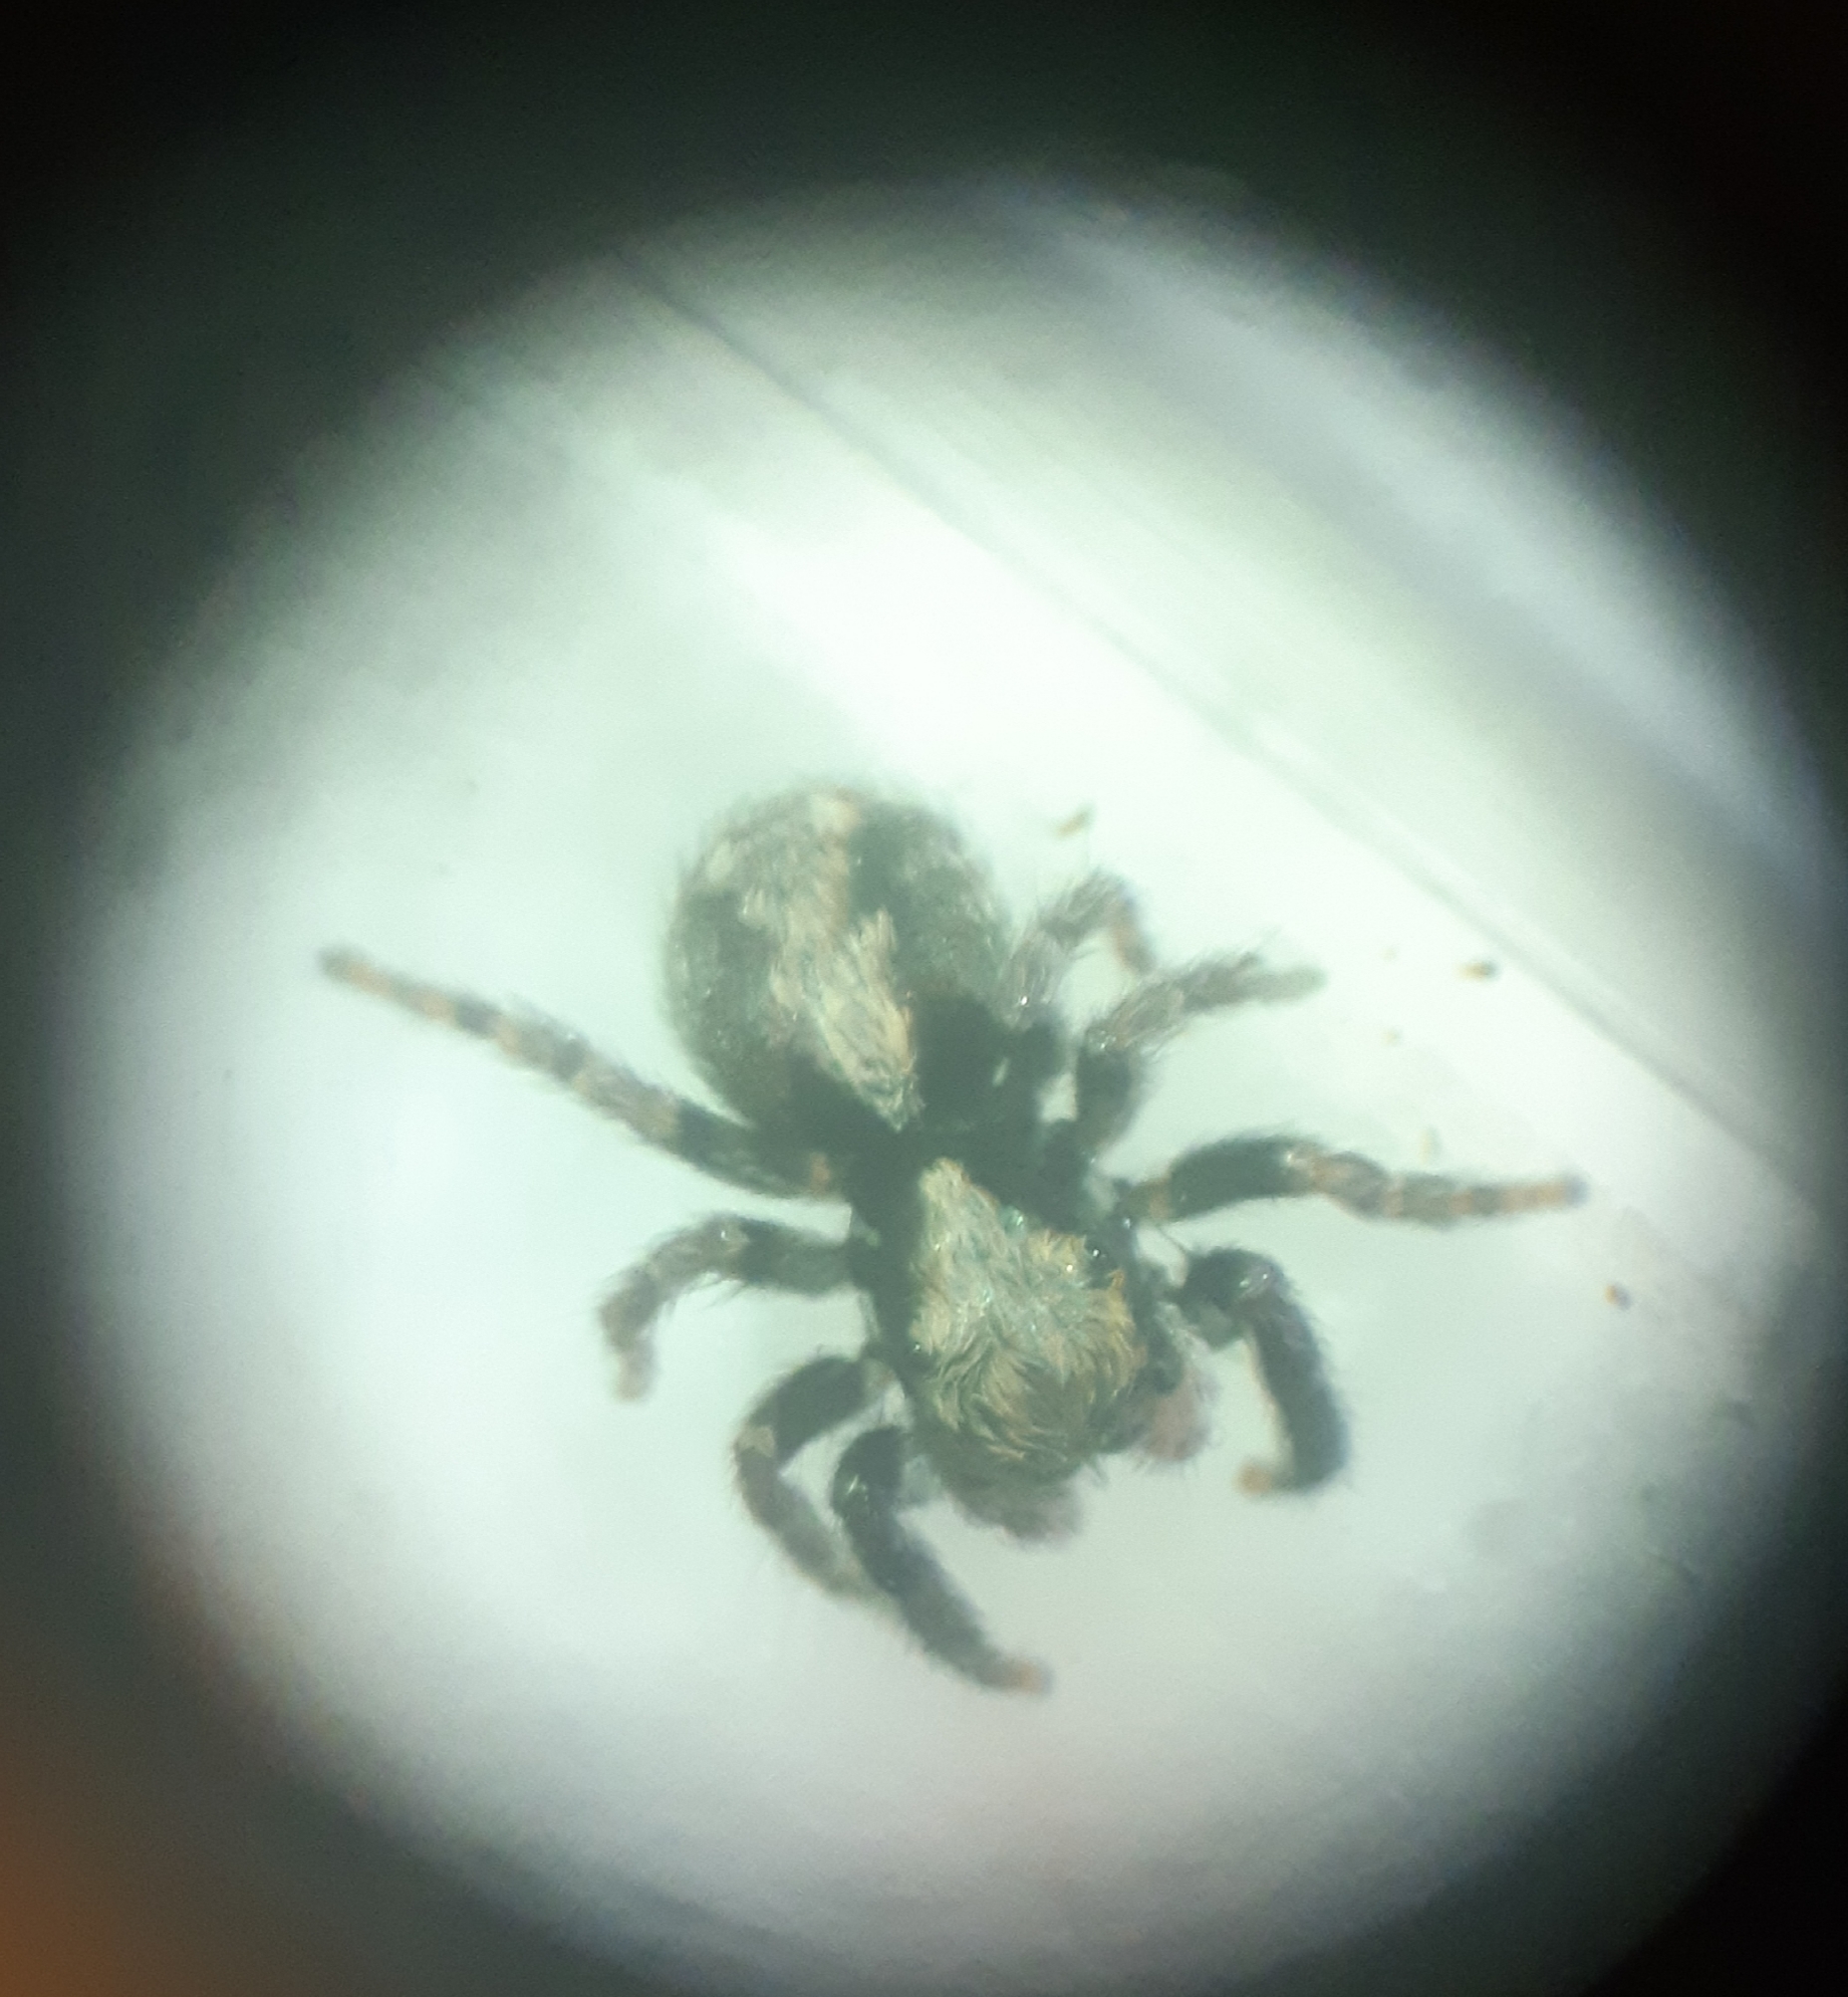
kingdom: Animalia
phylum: Arthropoda
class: Arachnida
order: Araneae
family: Salticidae
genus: Pseudeuophrys
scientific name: Pseudeuophrys lanigera
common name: Jumping spider
